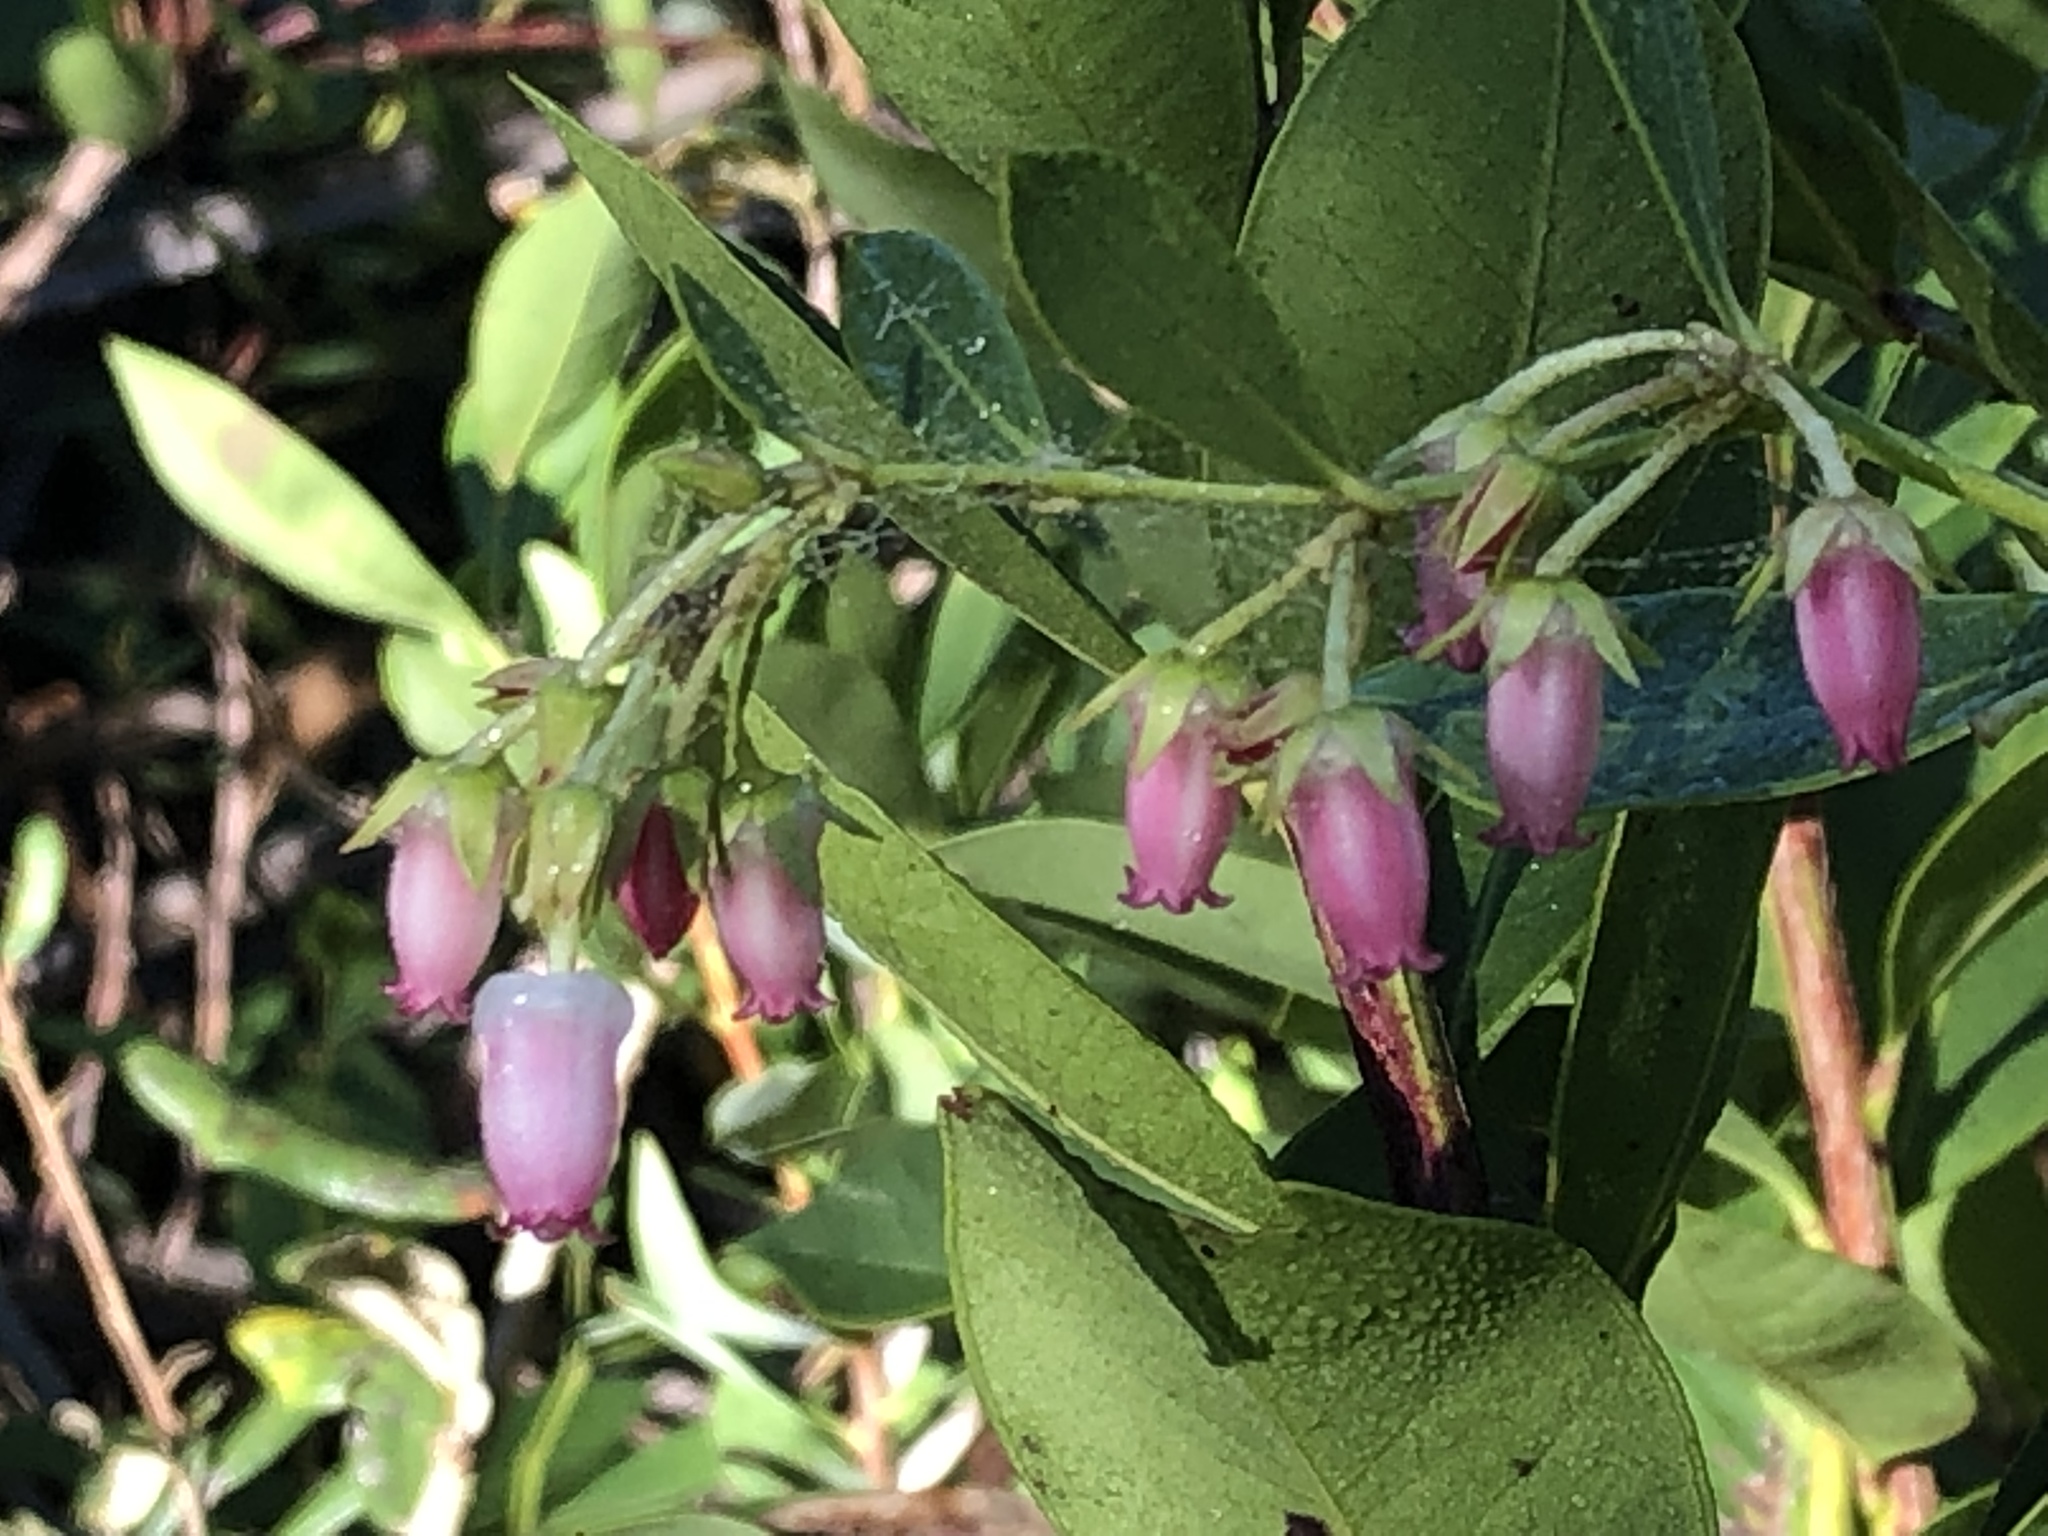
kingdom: Plantae
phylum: Tracheophyta
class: Magnoliopsida
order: Ericales
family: Ericaceae
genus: Lyonia
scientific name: Lyonia lucida
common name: Fetterbush
